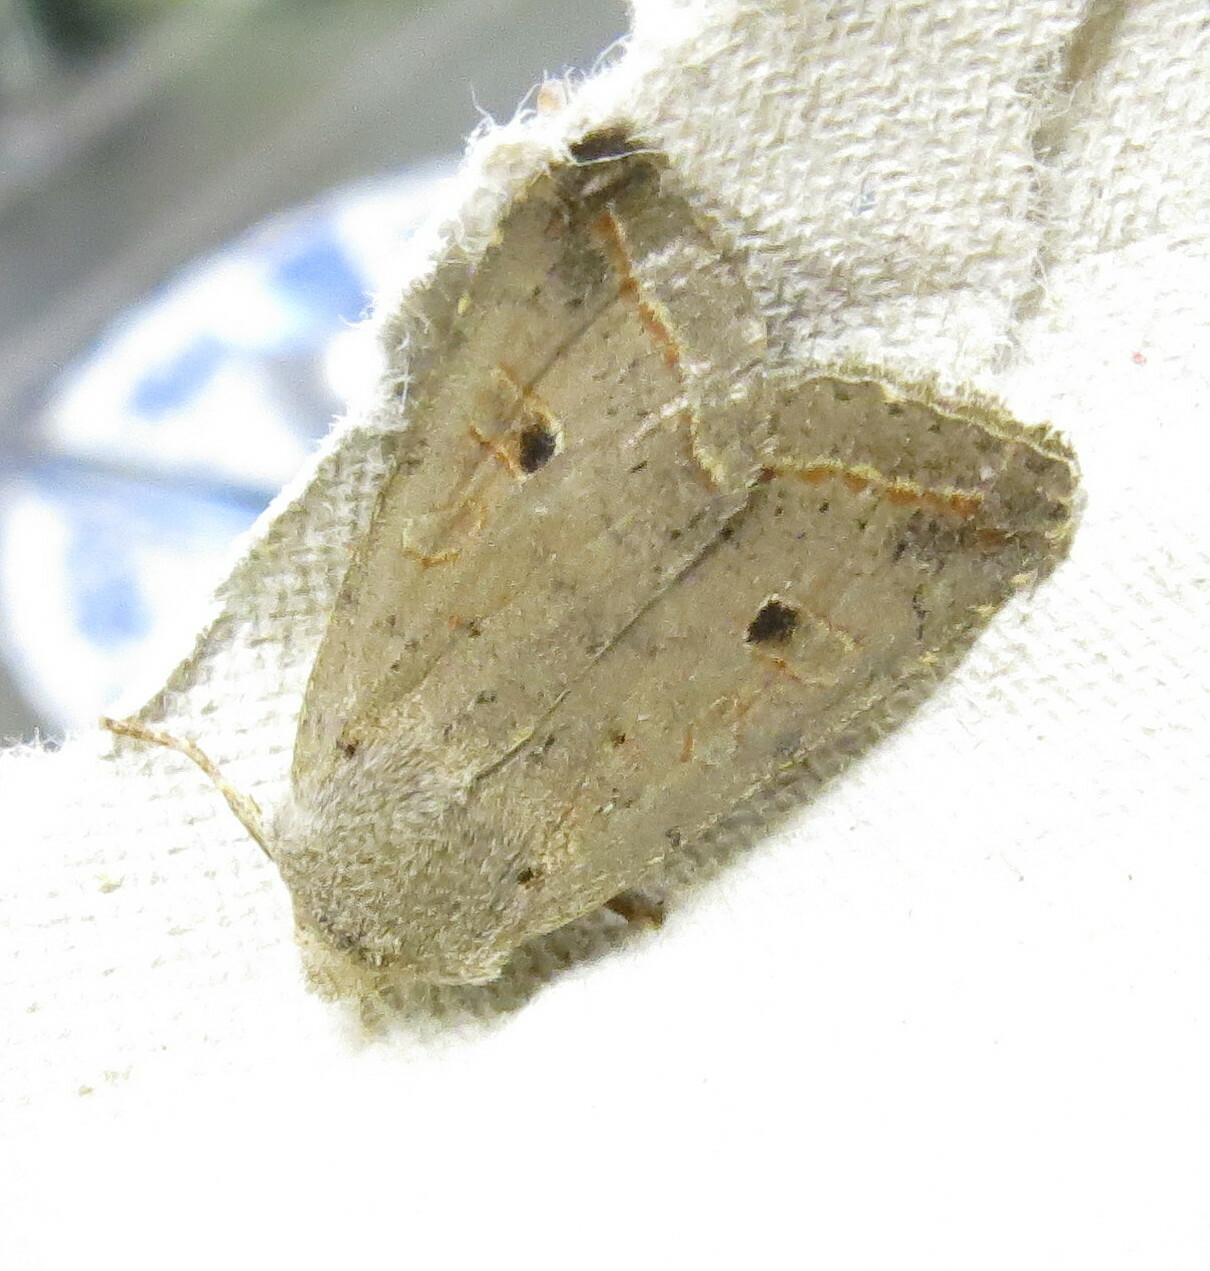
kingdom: Animalia
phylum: Arthropoda
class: Insecta
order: Lepidoptera
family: Noctuidae
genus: Agrochola
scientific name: Agrochola lota
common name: Red-line quaker
